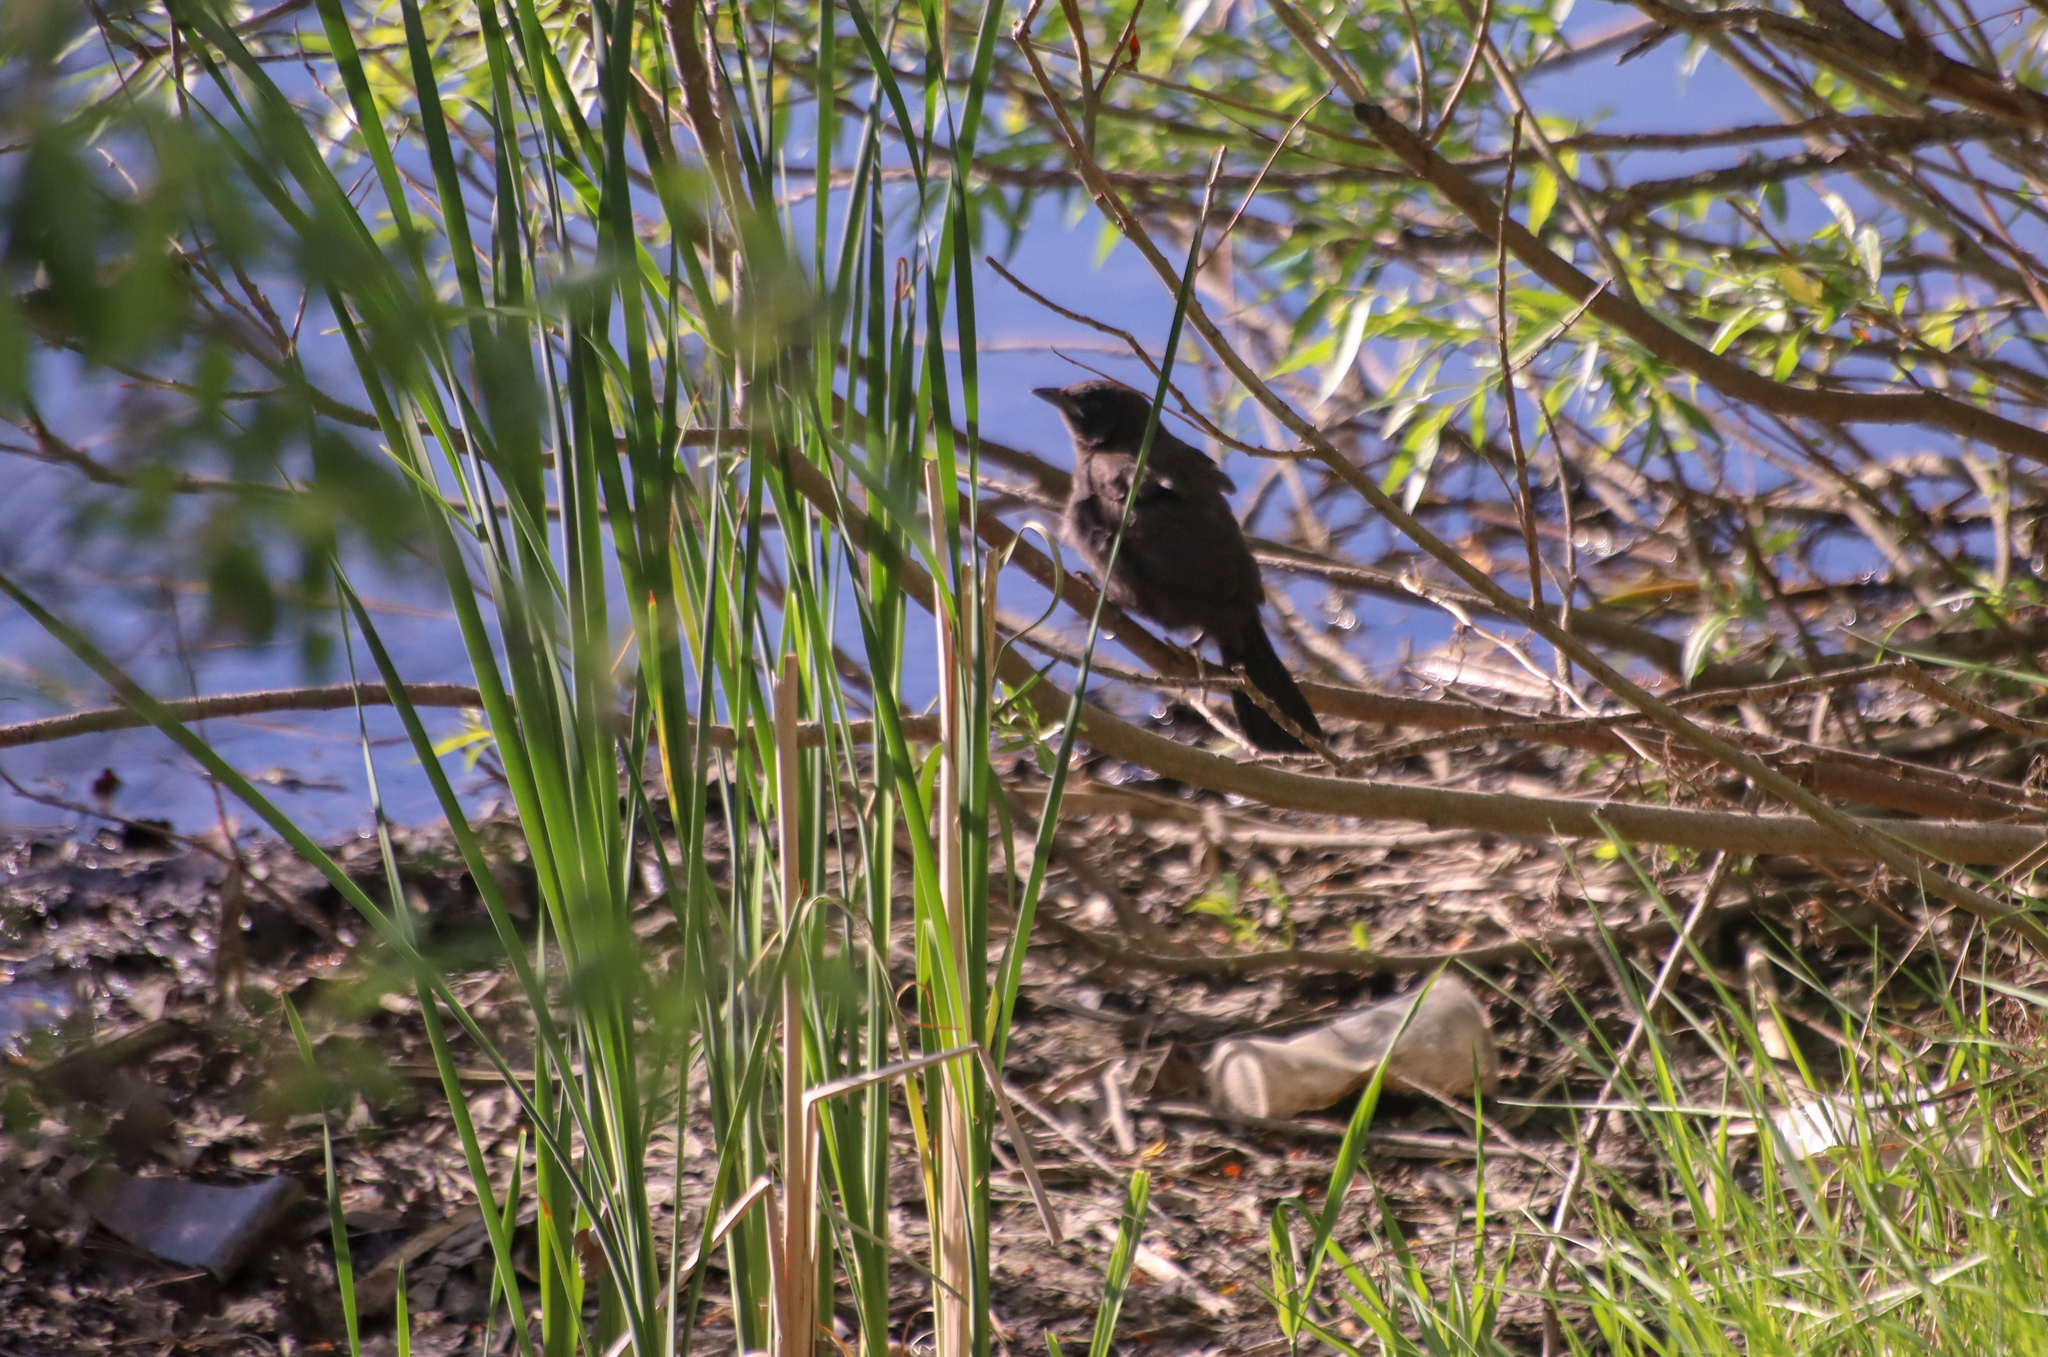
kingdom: Animalia
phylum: Chordata
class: Aves
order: Passeriformes
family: Icteridae
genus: Quiscalus
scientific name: Quiscalus quiscula
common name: Common grackle
